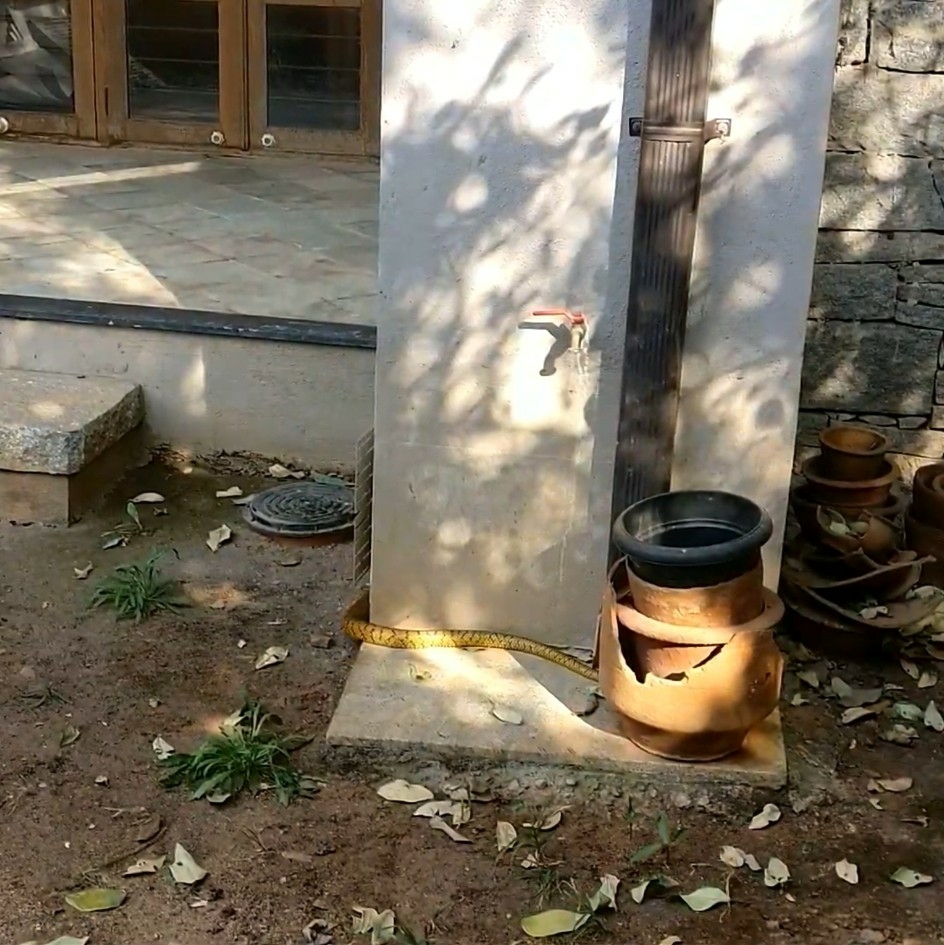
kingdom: Animalia
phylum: Chordata
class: Squamata
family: Colubridae
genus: Ptyas
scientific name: Ptyas mucosa
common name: Oriental ratsnake
